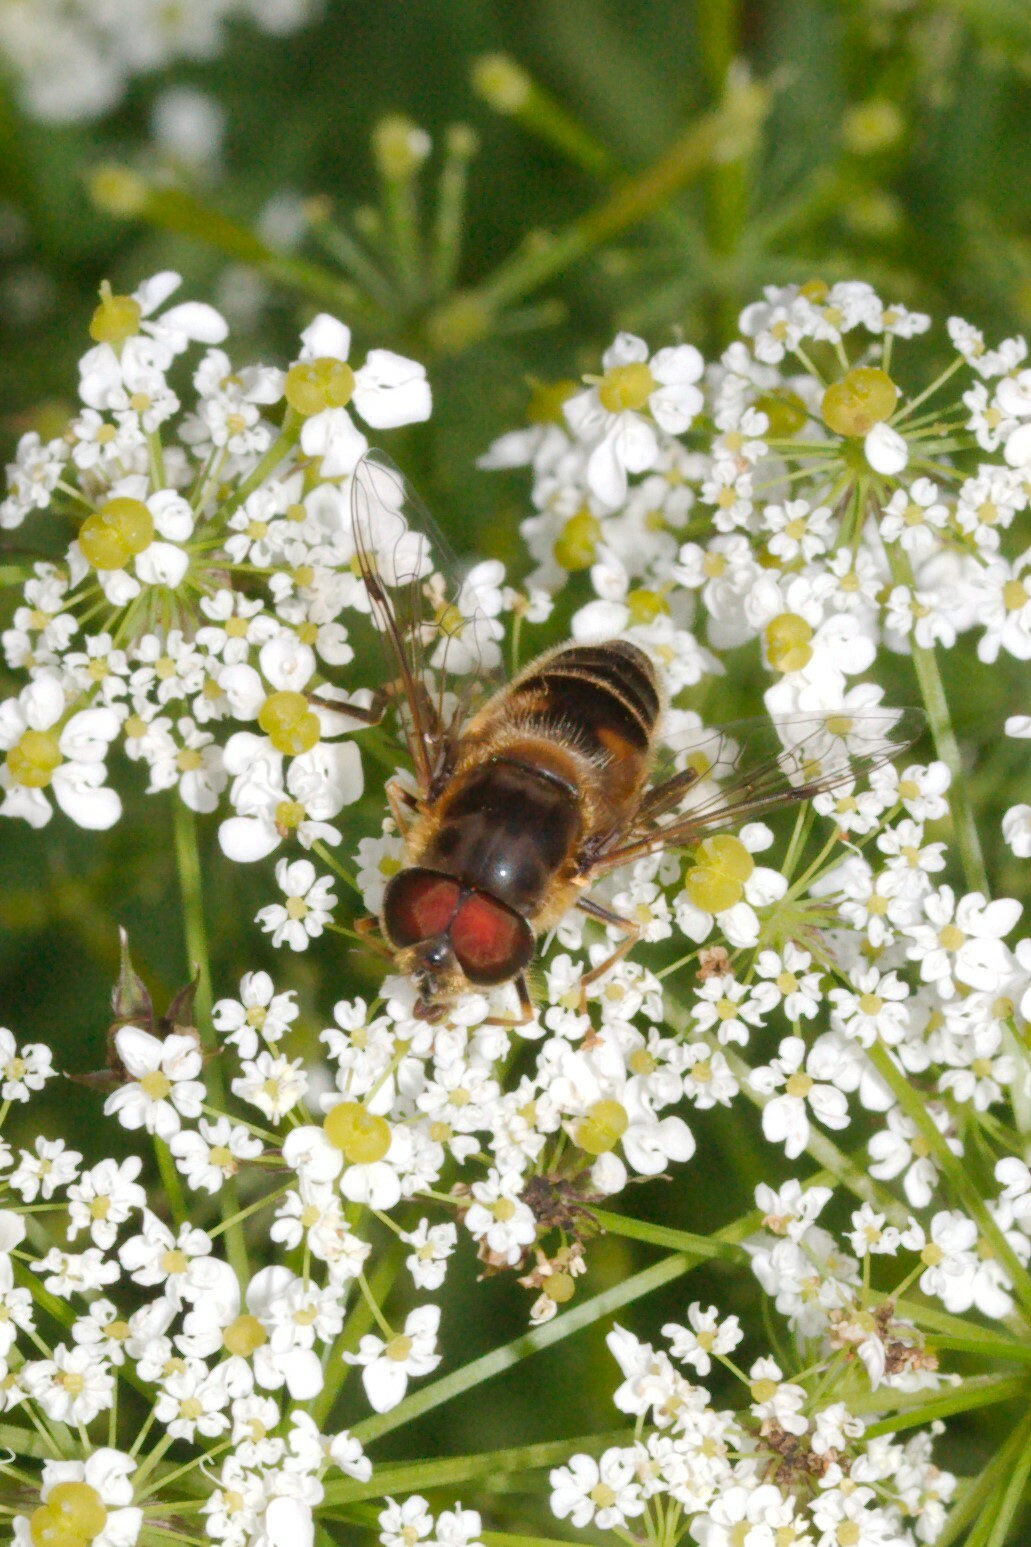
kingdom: Animalia
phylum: Arthropoda
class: Insecta
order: Diptera
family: Syrphidae
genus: Eristalis
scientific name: Eristalis pertinax
